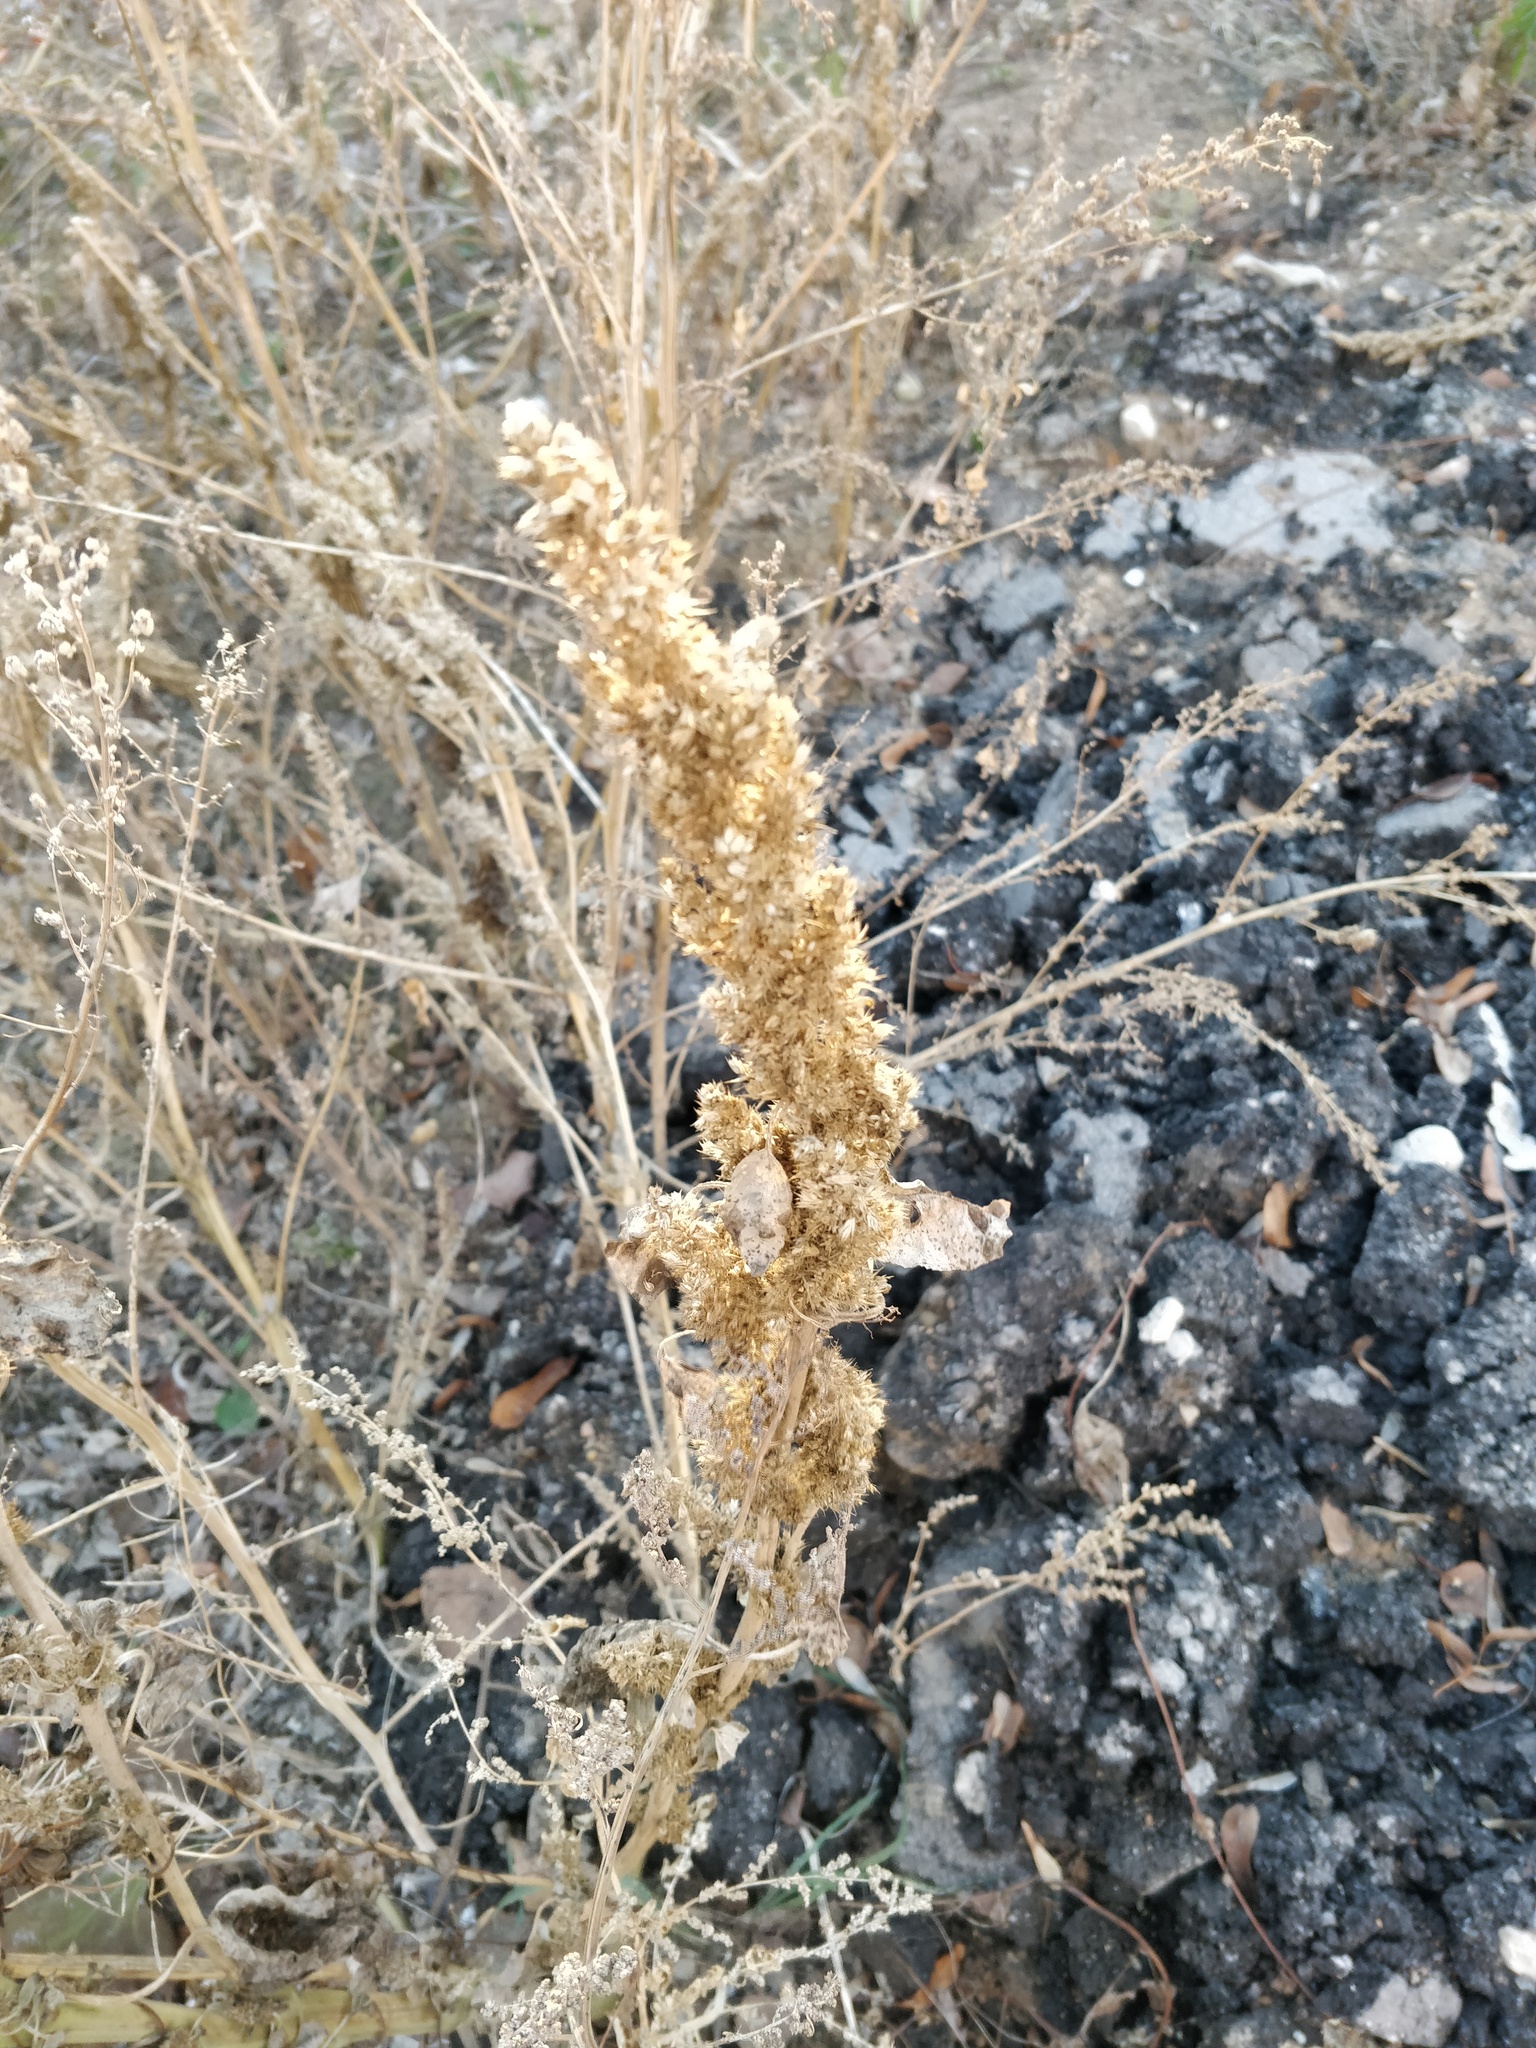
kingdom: Plantae
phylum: Tracheophyta
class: Magnoliopsida
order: Caryophyllales
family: Amaranthaceae
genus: Amaranthus
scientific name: Amaranthus retroflexus
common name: Redroot amaranth
